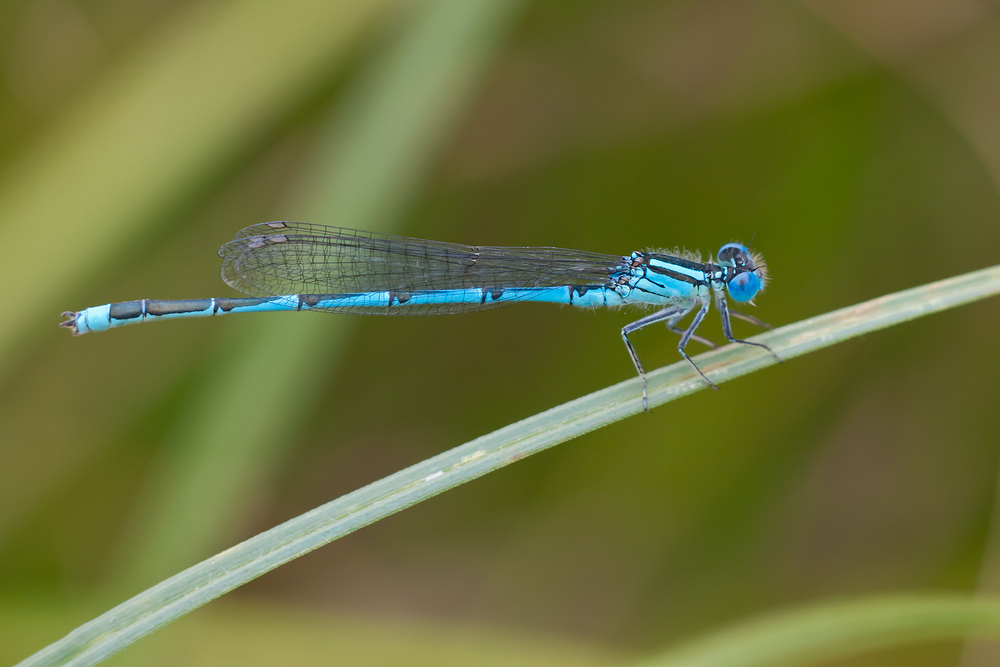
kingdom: Animalia
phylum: Arthropoda
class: Insecta
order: Odonata
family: Coenagrionidae
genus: Erythromma
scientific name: Erythromma lindenii
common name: Blue-eye
